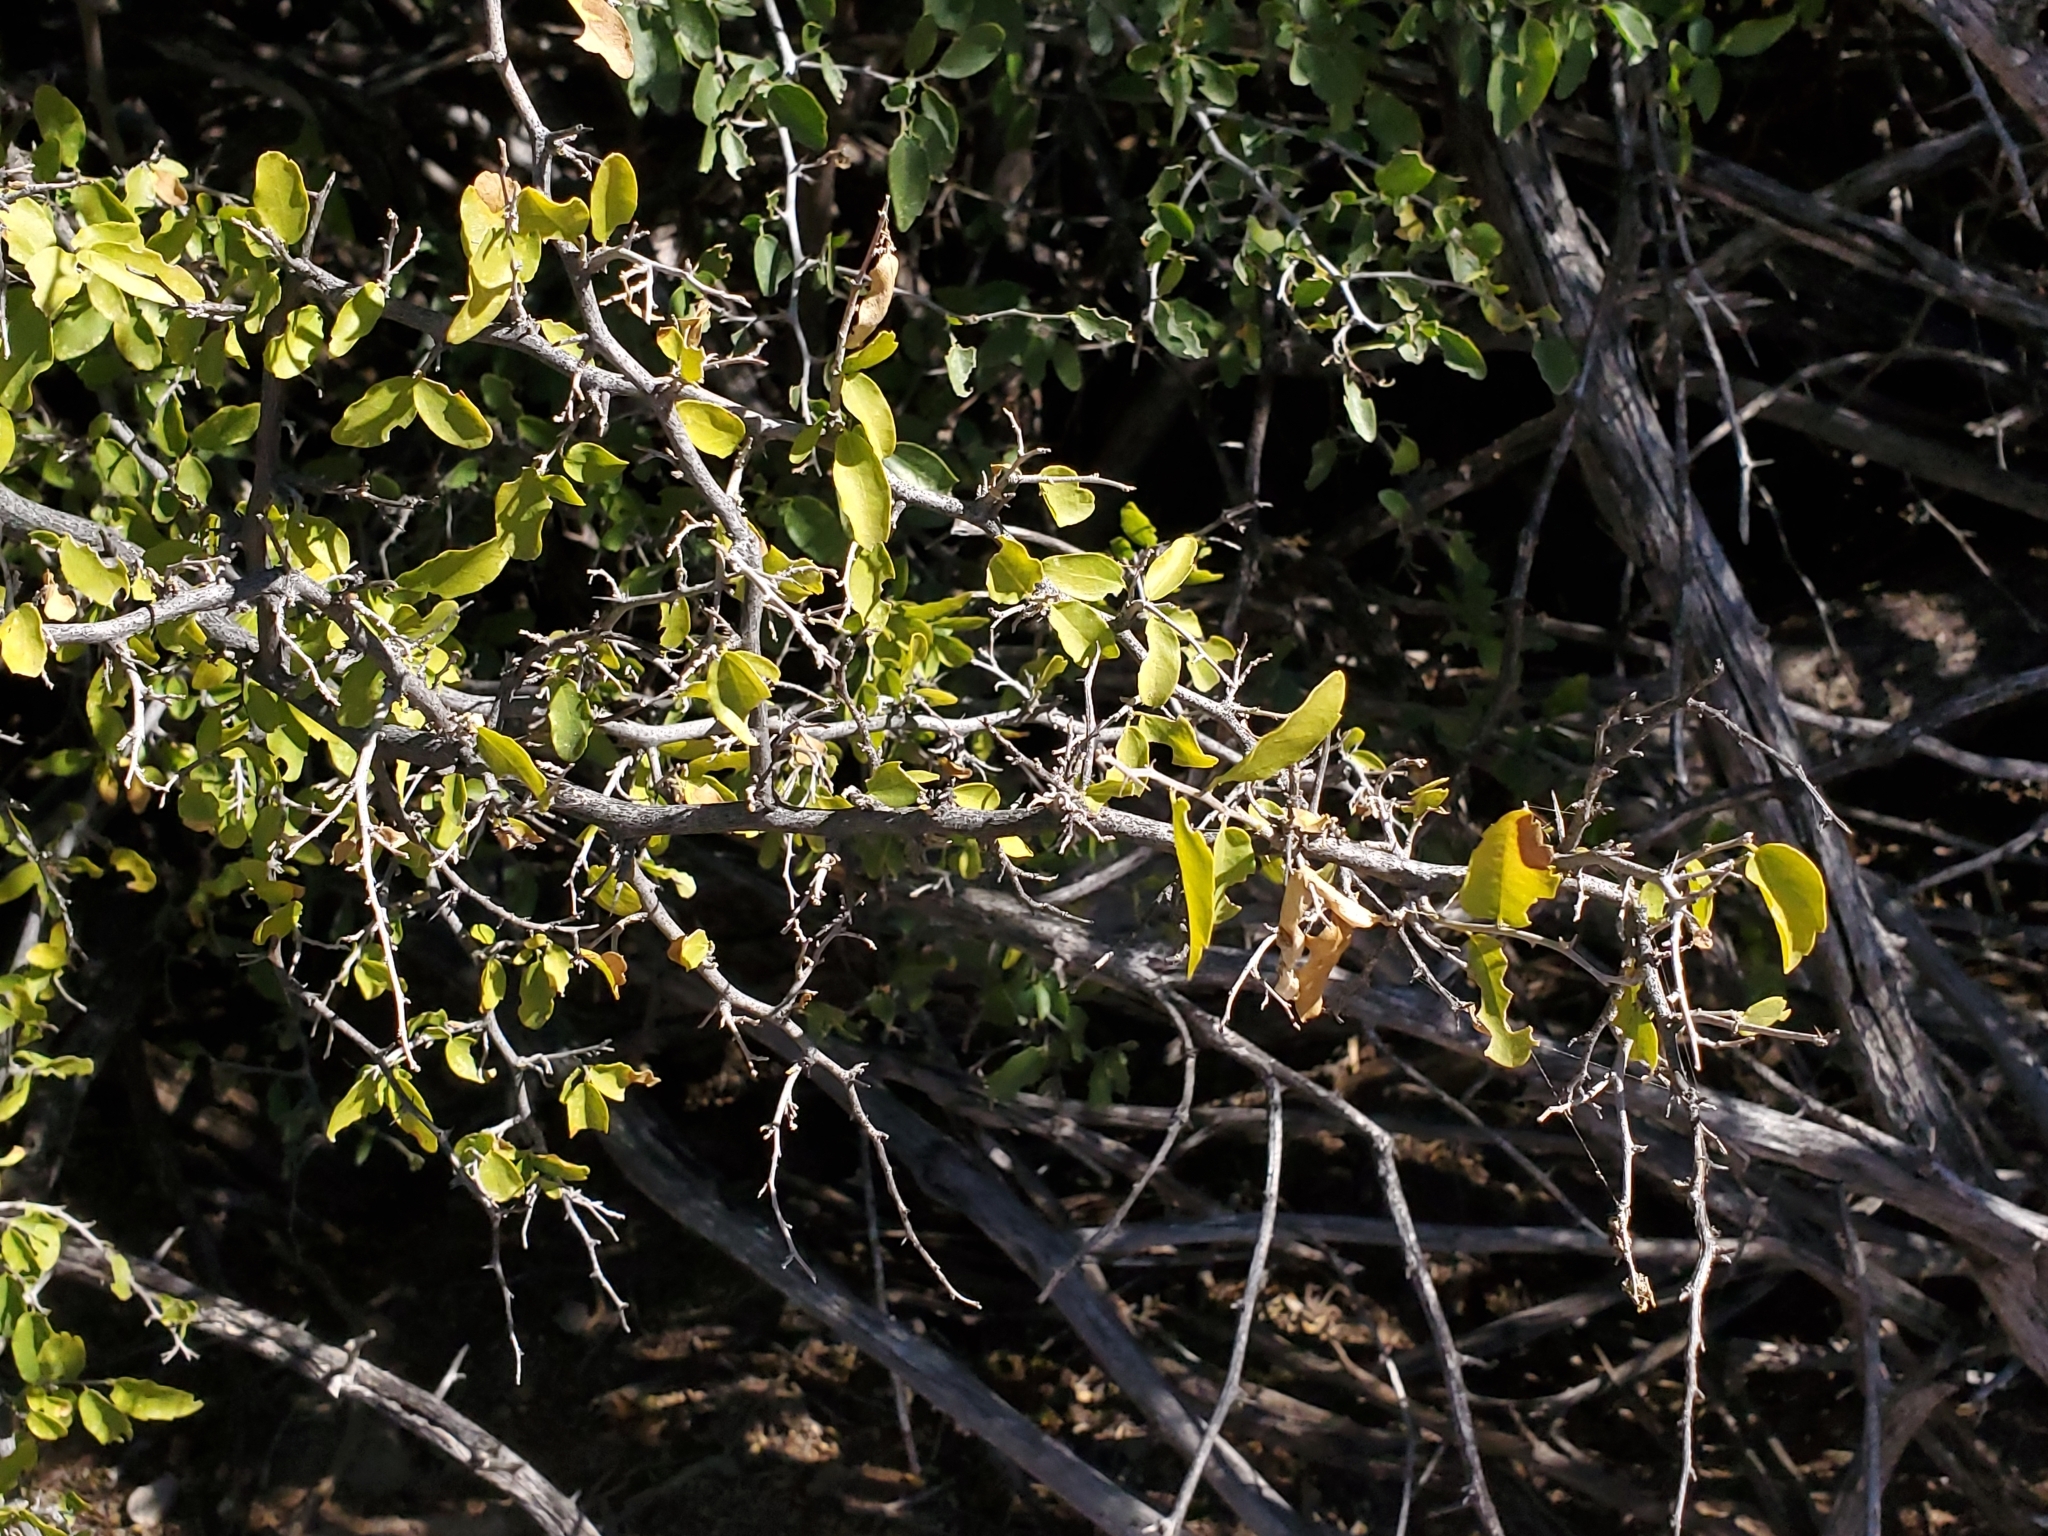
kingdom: Plantae
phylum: Tracheophyta
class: Magnoliopsida
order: Rosales
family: Cannabaceae
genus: Celtis
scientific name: Celtis pallida
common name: Desert hackberry
